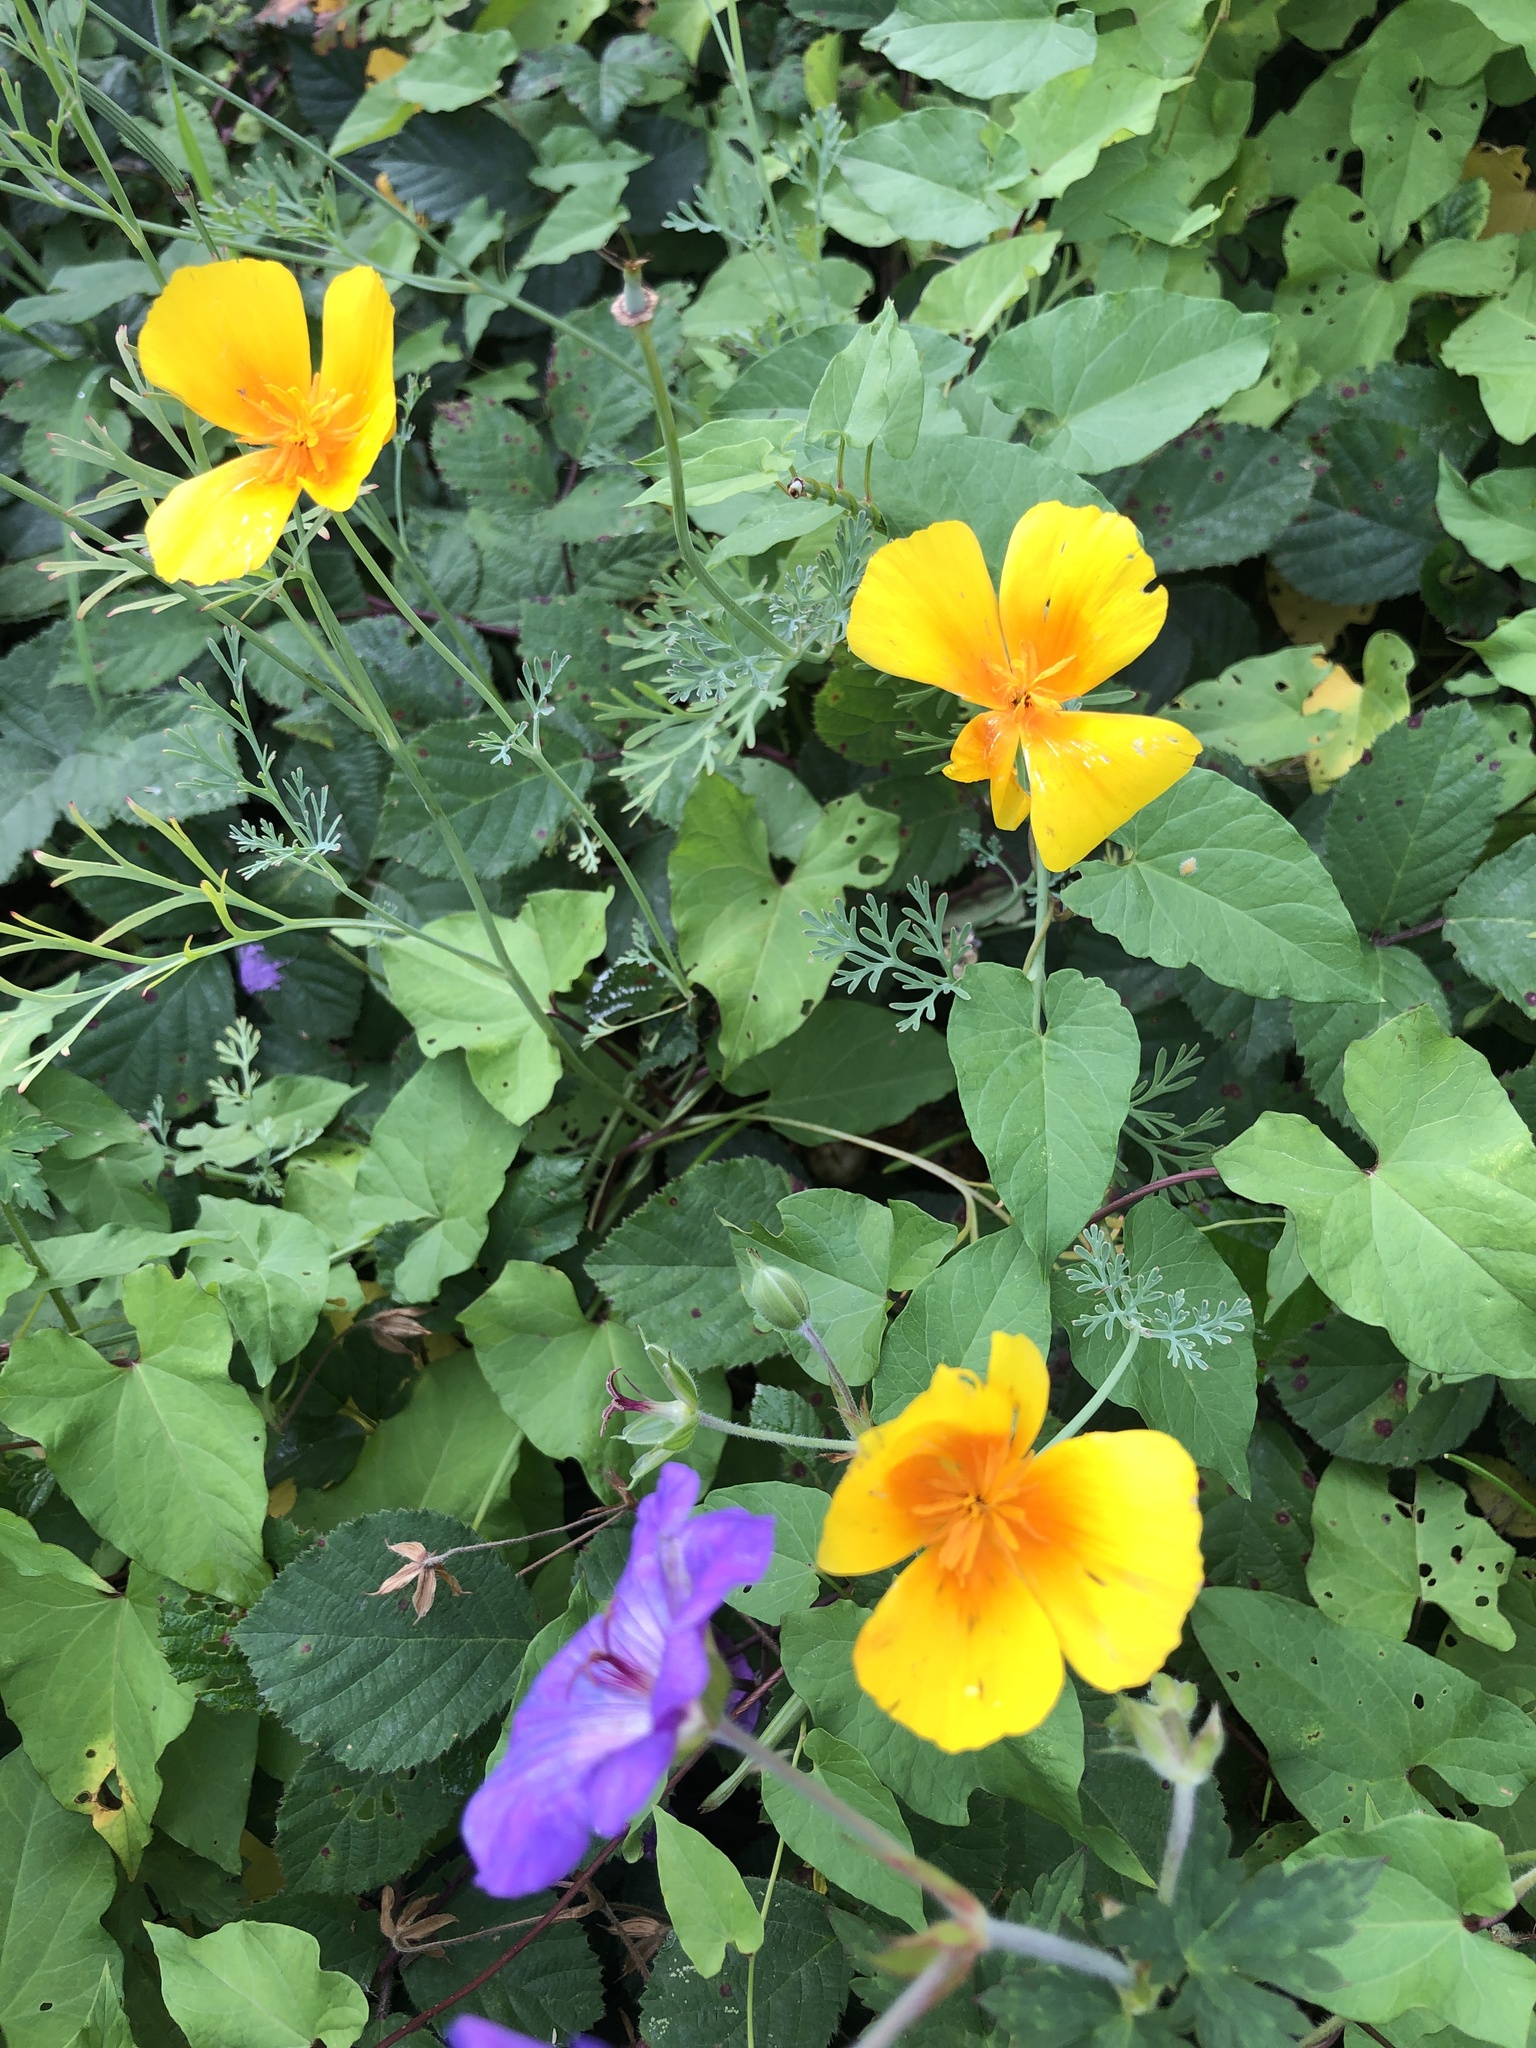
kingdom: Plantae
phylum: Tracheophyta
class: Magnoliopsida
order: Ranunculales
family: Papaveraceae
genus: Eschscholzia
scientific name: Eschscholzia californica
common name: California poppy
